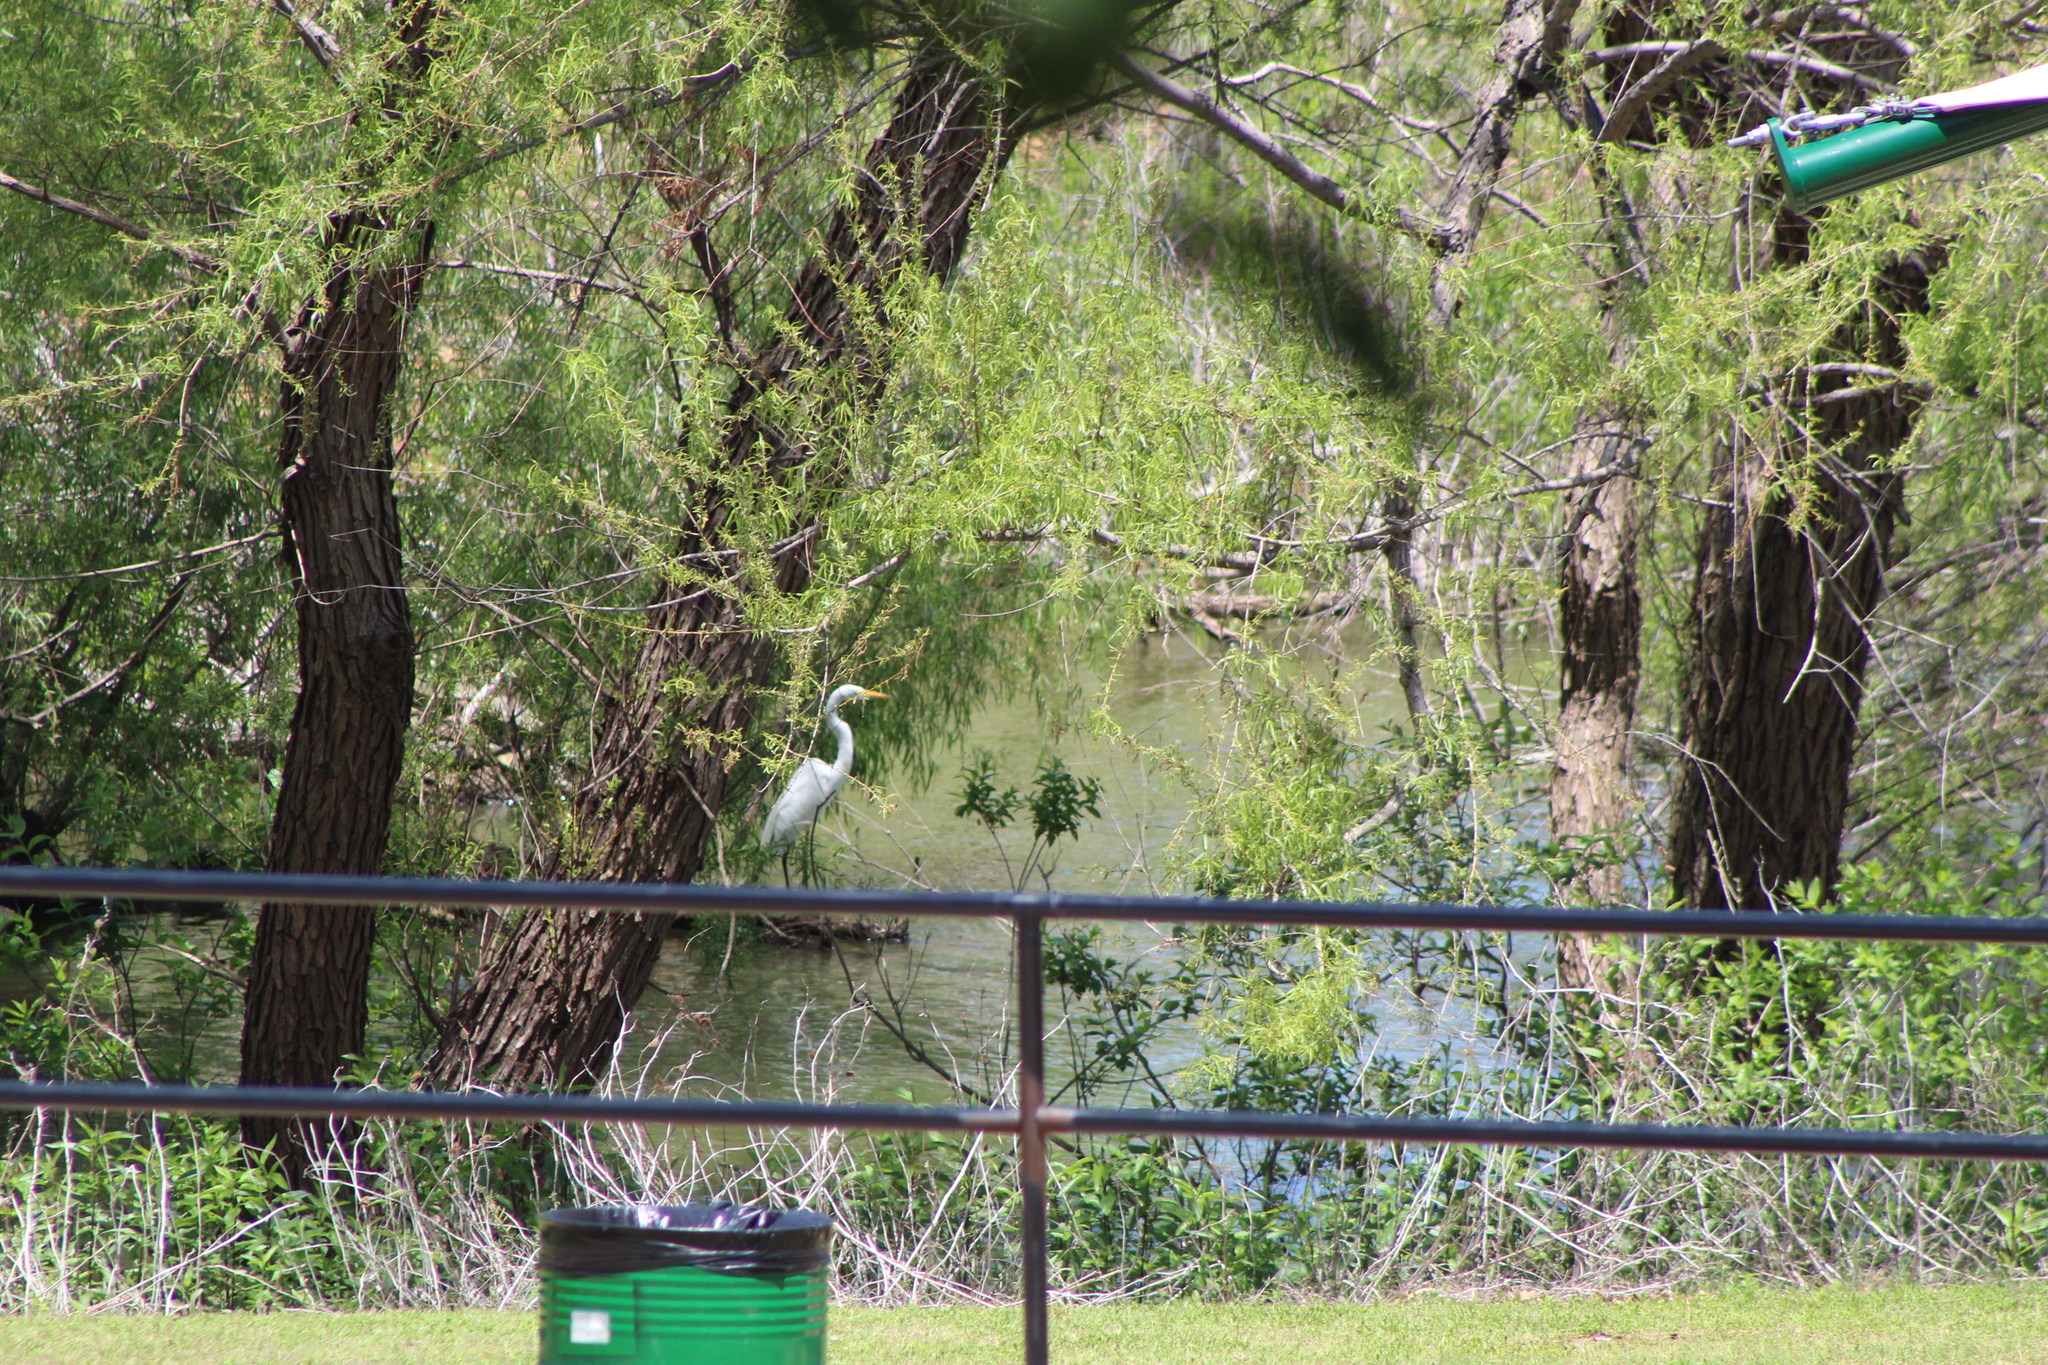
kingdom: Animalia
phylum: Chordata
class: Aves
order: Pelecaniformes
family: Ardeidae
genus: Ardea
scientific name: Ardea alba
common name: Great egret
